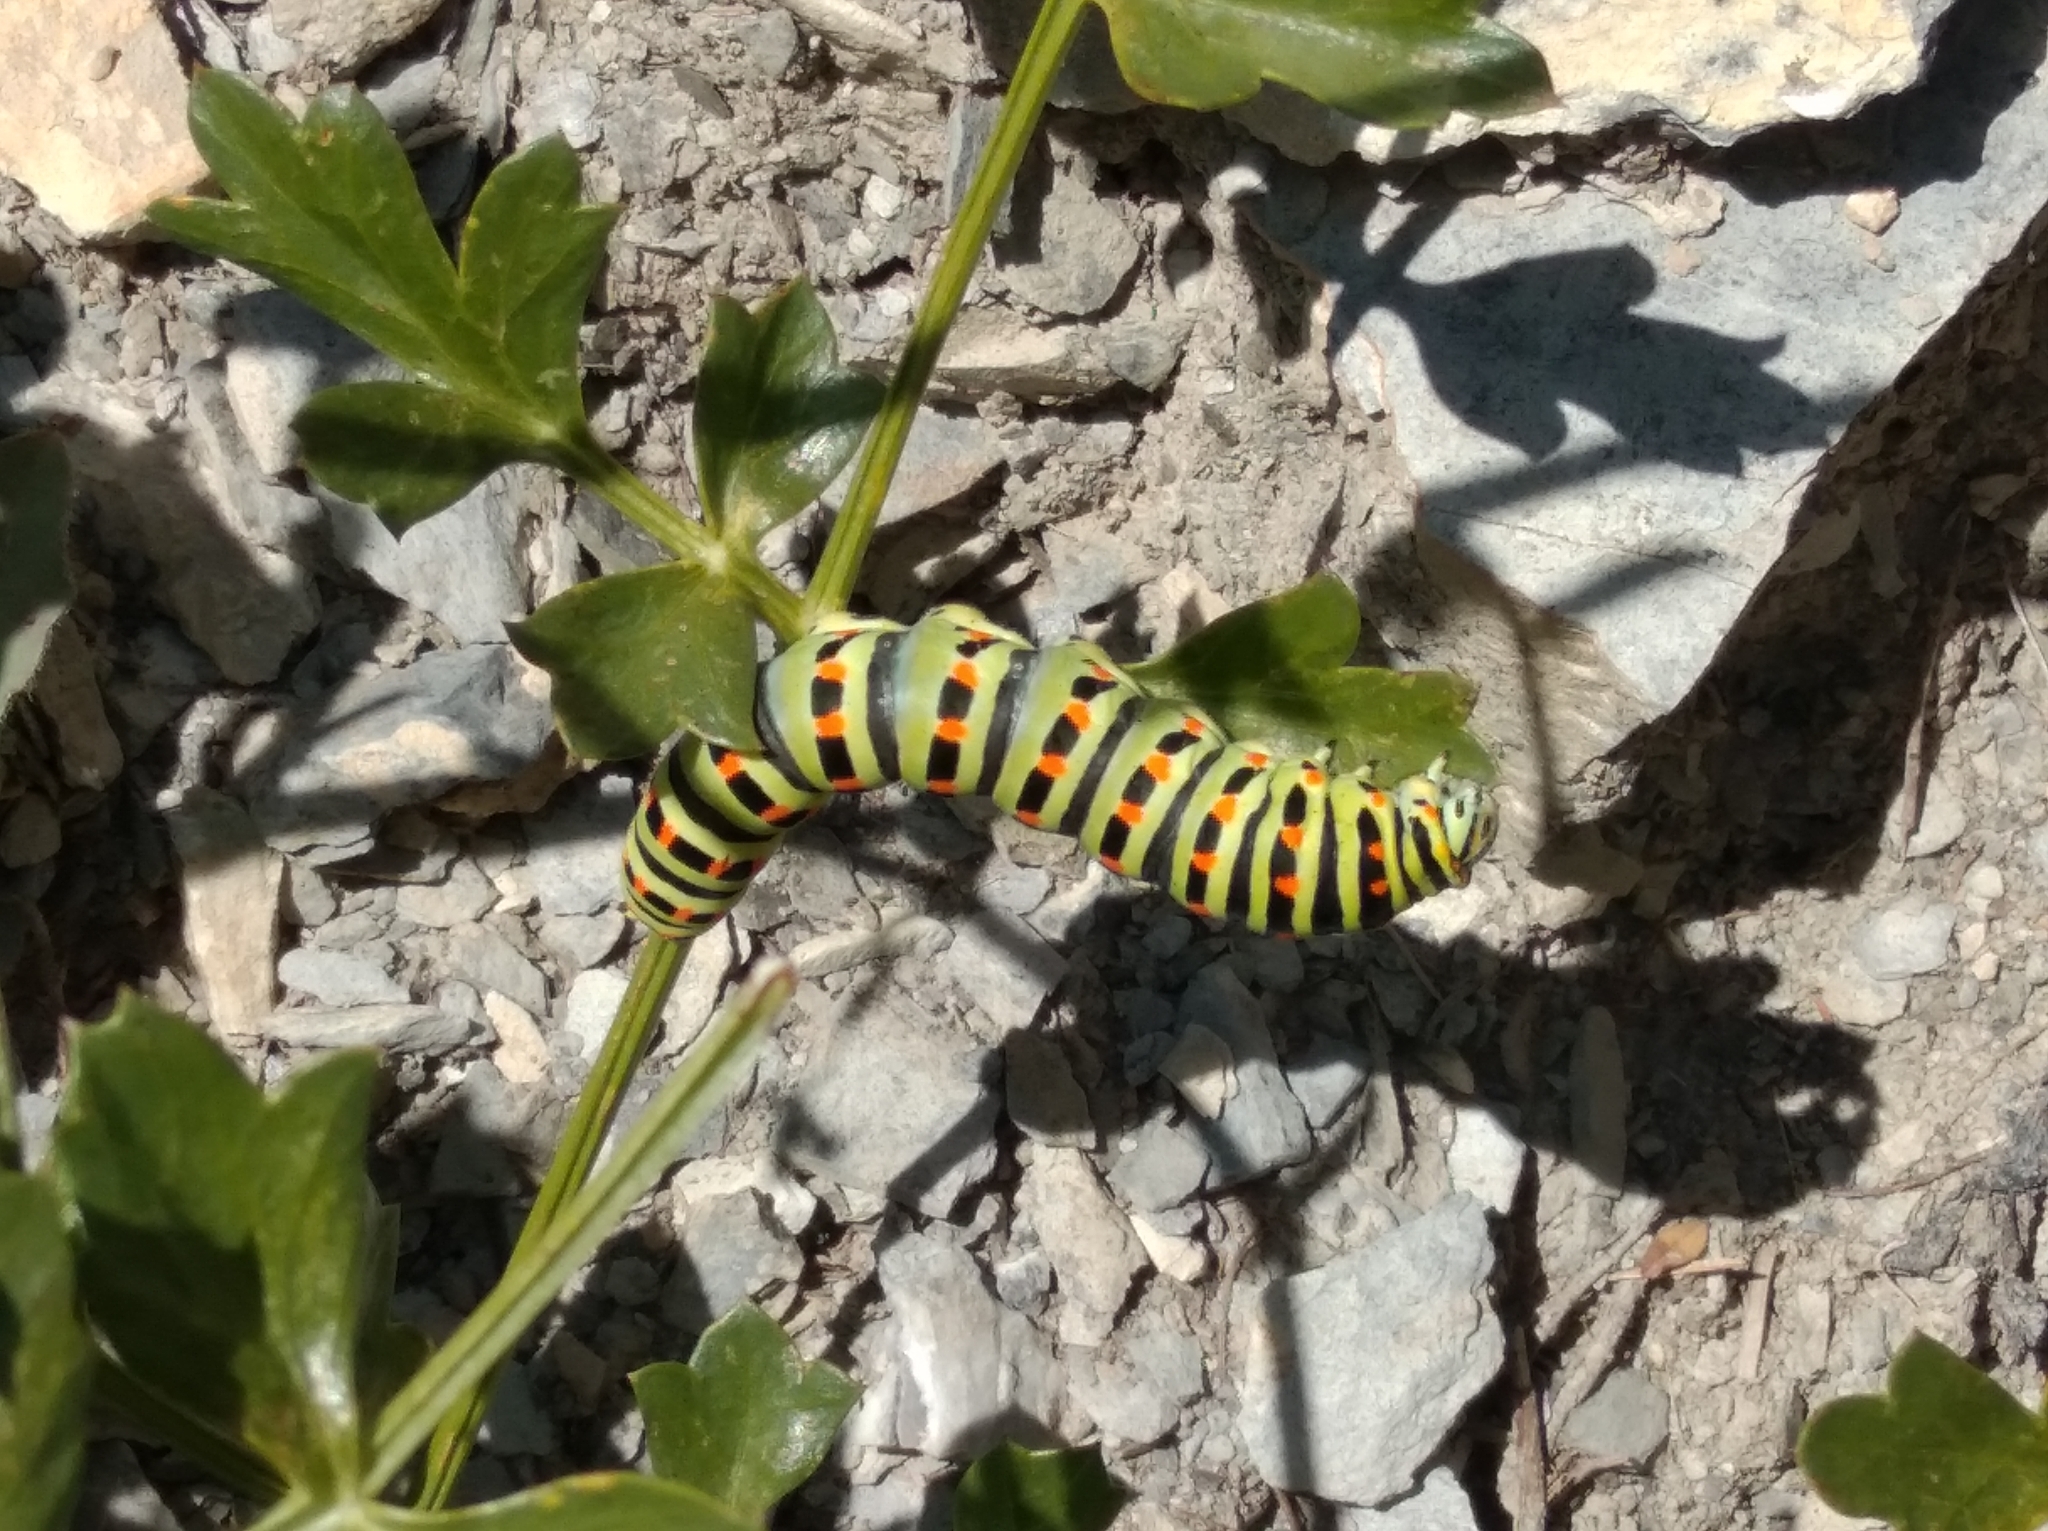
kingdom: Animalia
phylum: Arthropoda
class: Insecta
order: Lepidoptera
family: Papilionidae
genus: Papilio
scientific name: Papilio machaon
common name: Swallowtail
